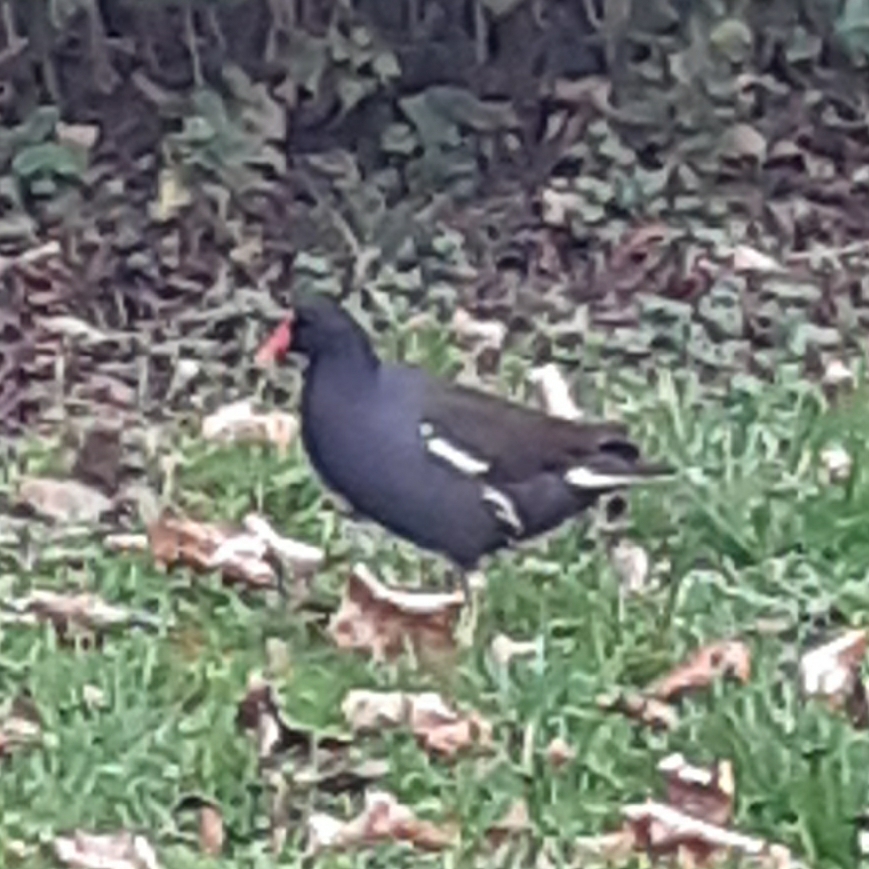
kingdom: Animalia
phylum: Chordata
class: Aves
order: Gruiformes
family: Rallidae
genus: Gallinula
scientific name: Gallinula chloropus
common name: Common moorhen
